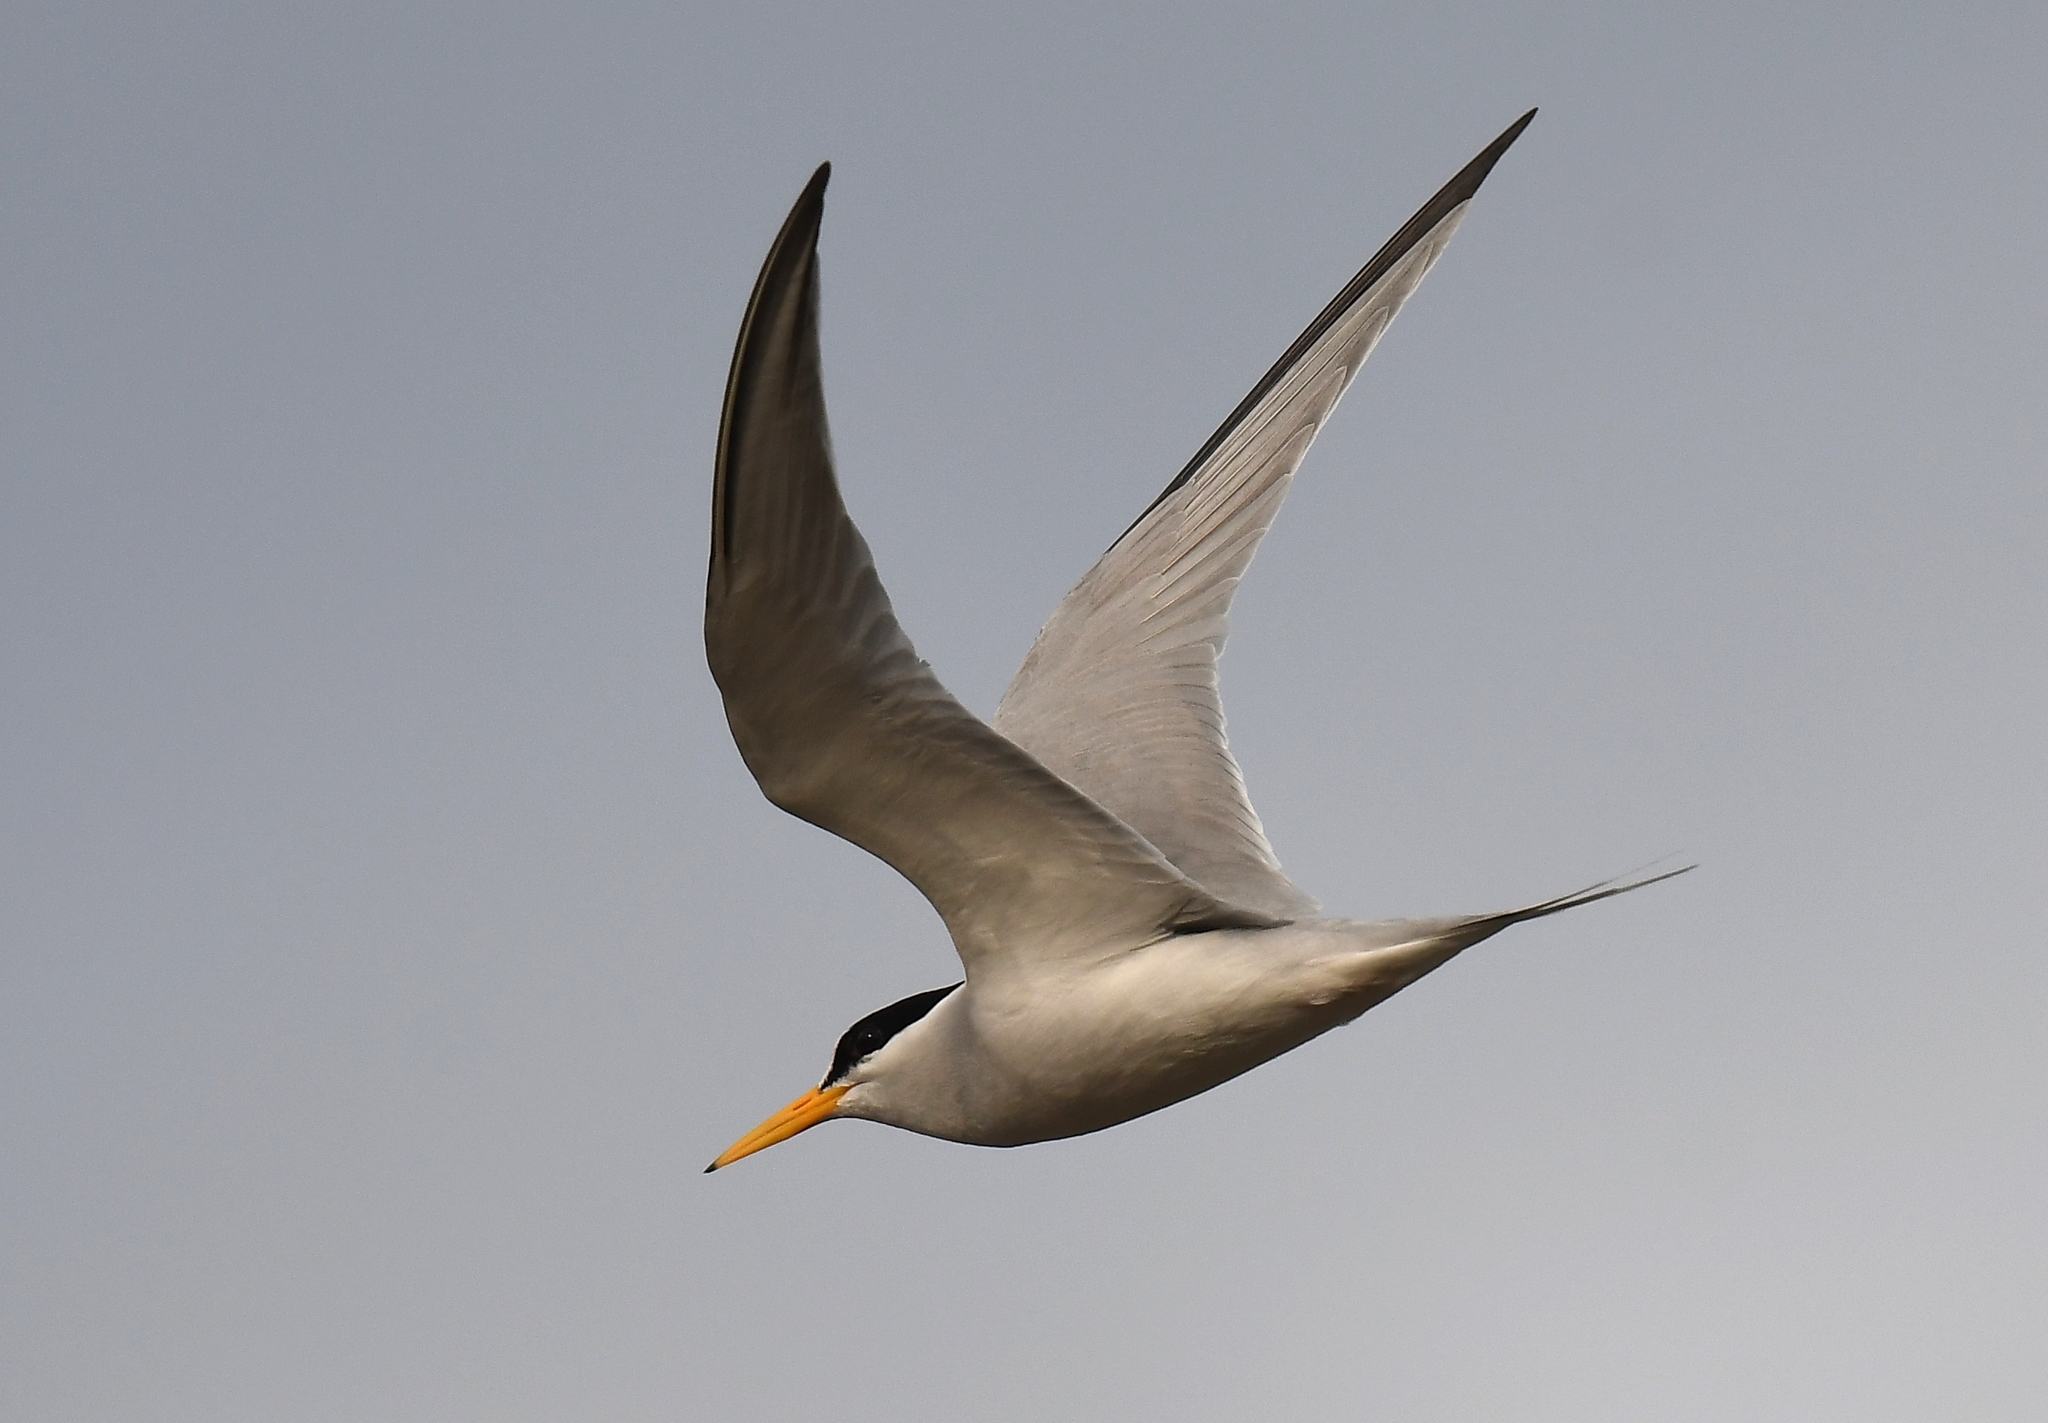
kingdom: Animalia
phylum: Chordata
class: Aves
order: Charadriiformes
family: Laridae
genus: Sternula
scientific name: Sternula antillarum
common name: Least tern
